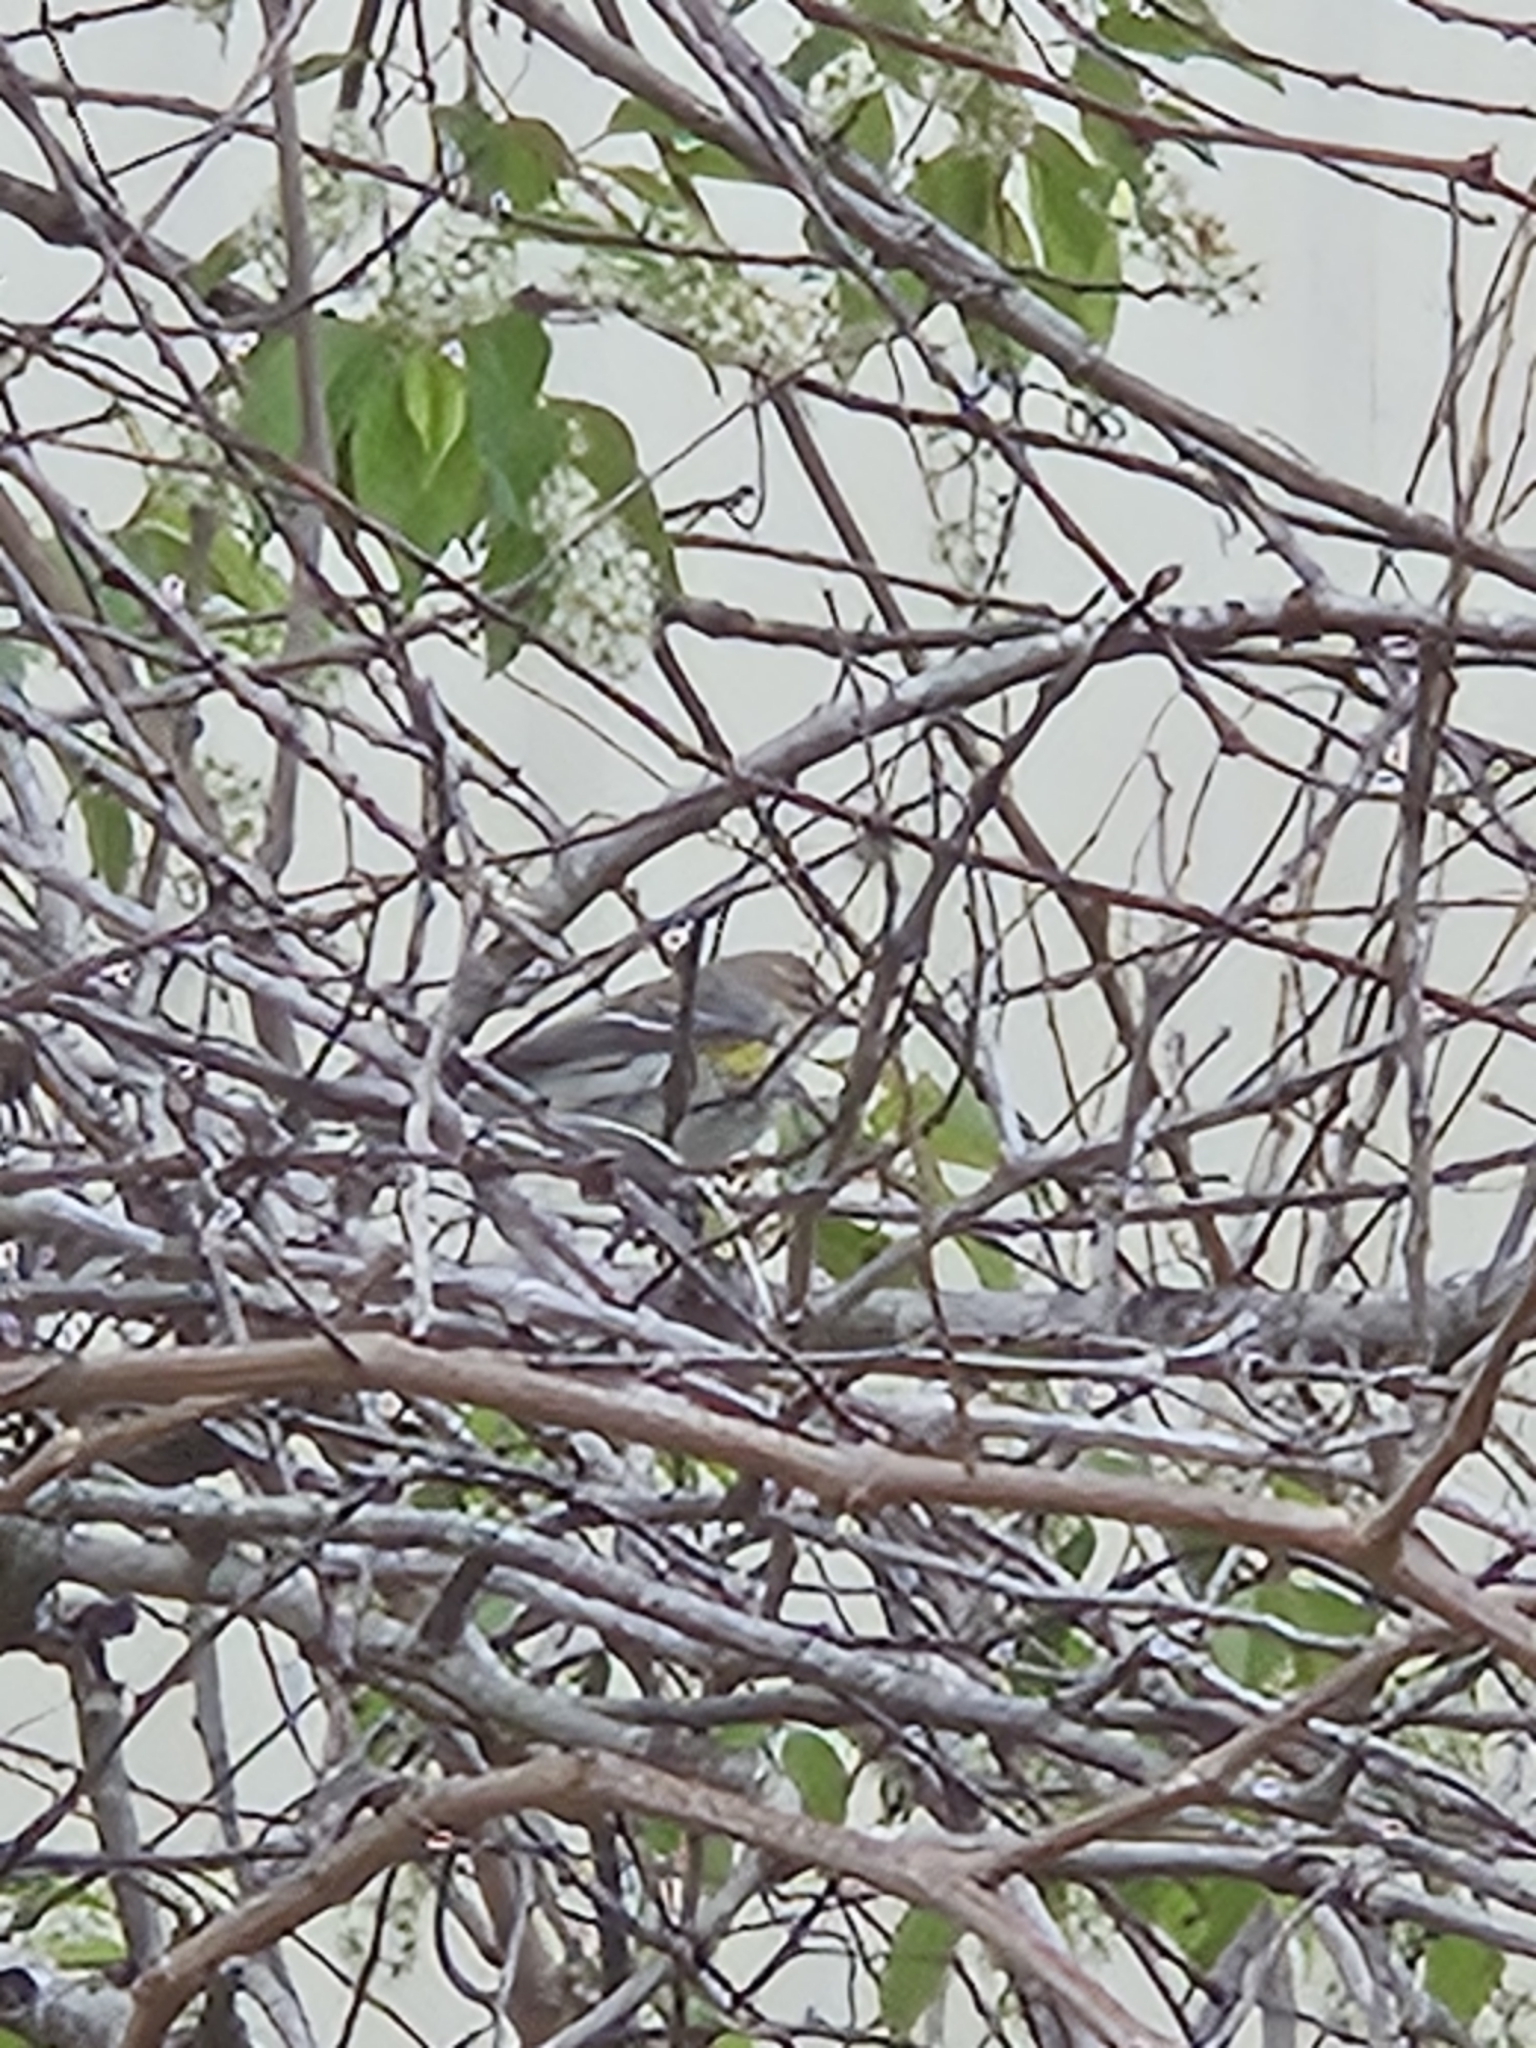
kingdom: Animalia
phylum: Chordata
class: Aves
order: Passeriformes
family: Parulidae
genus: Setophaga
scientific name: Setophaga coronata
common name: Myrtle warbler
